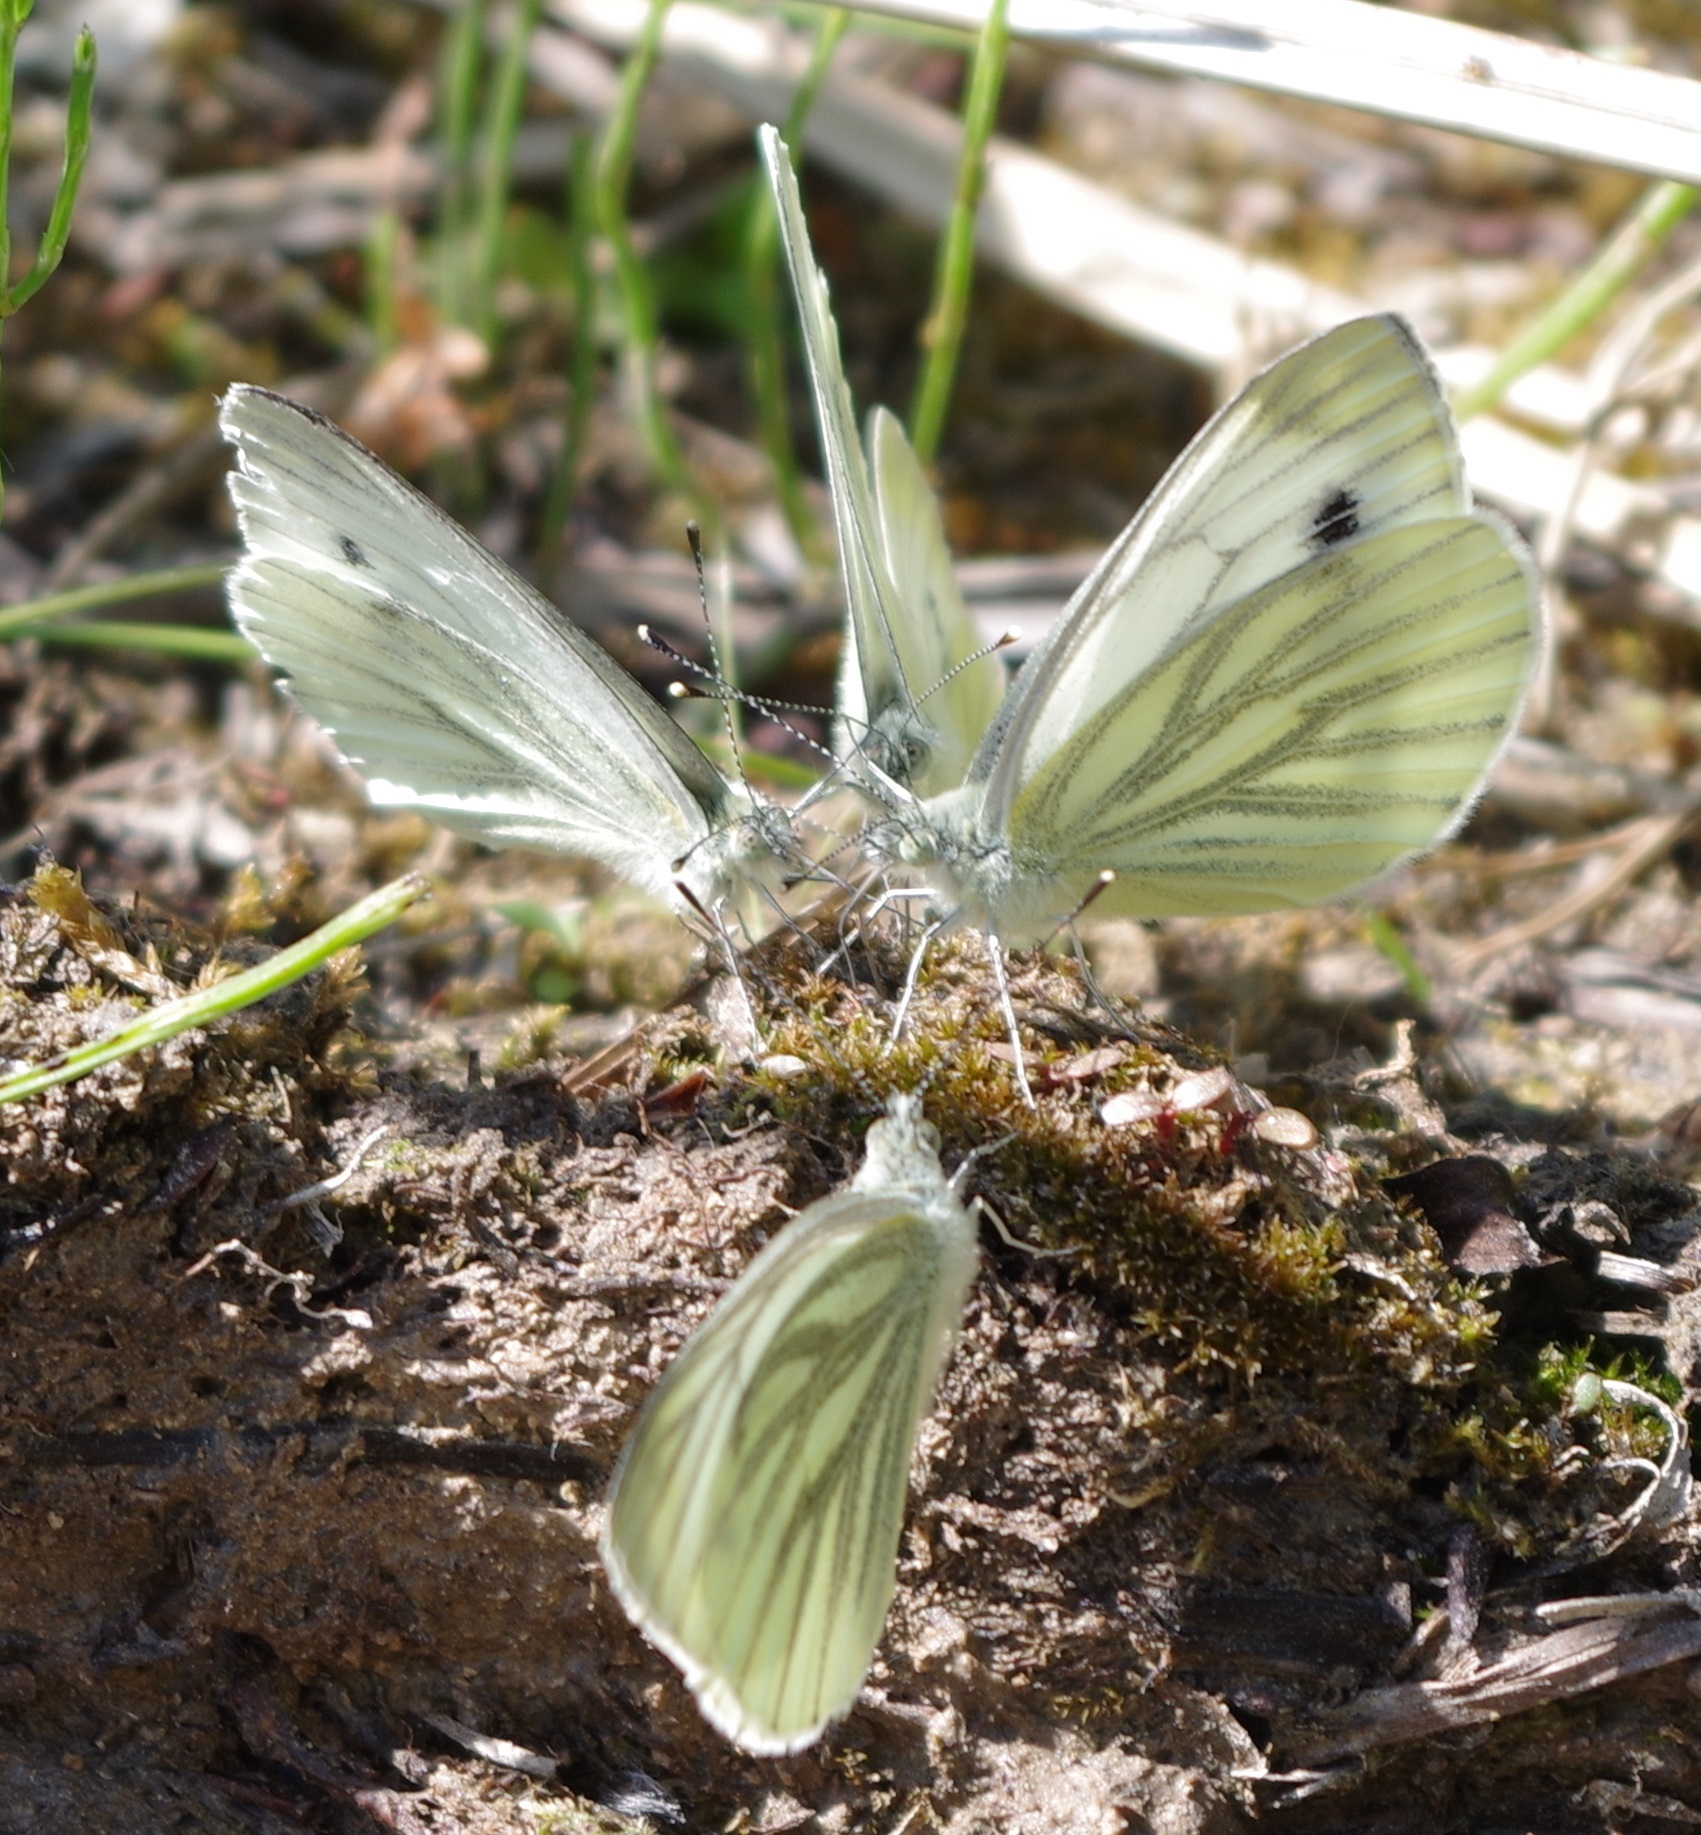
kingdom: Animalia
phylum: Arthropoda
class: Insecta
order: Lepidoptera
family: Pieridae
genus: Pieris
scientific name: Pieris napi
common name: Green-veined white
